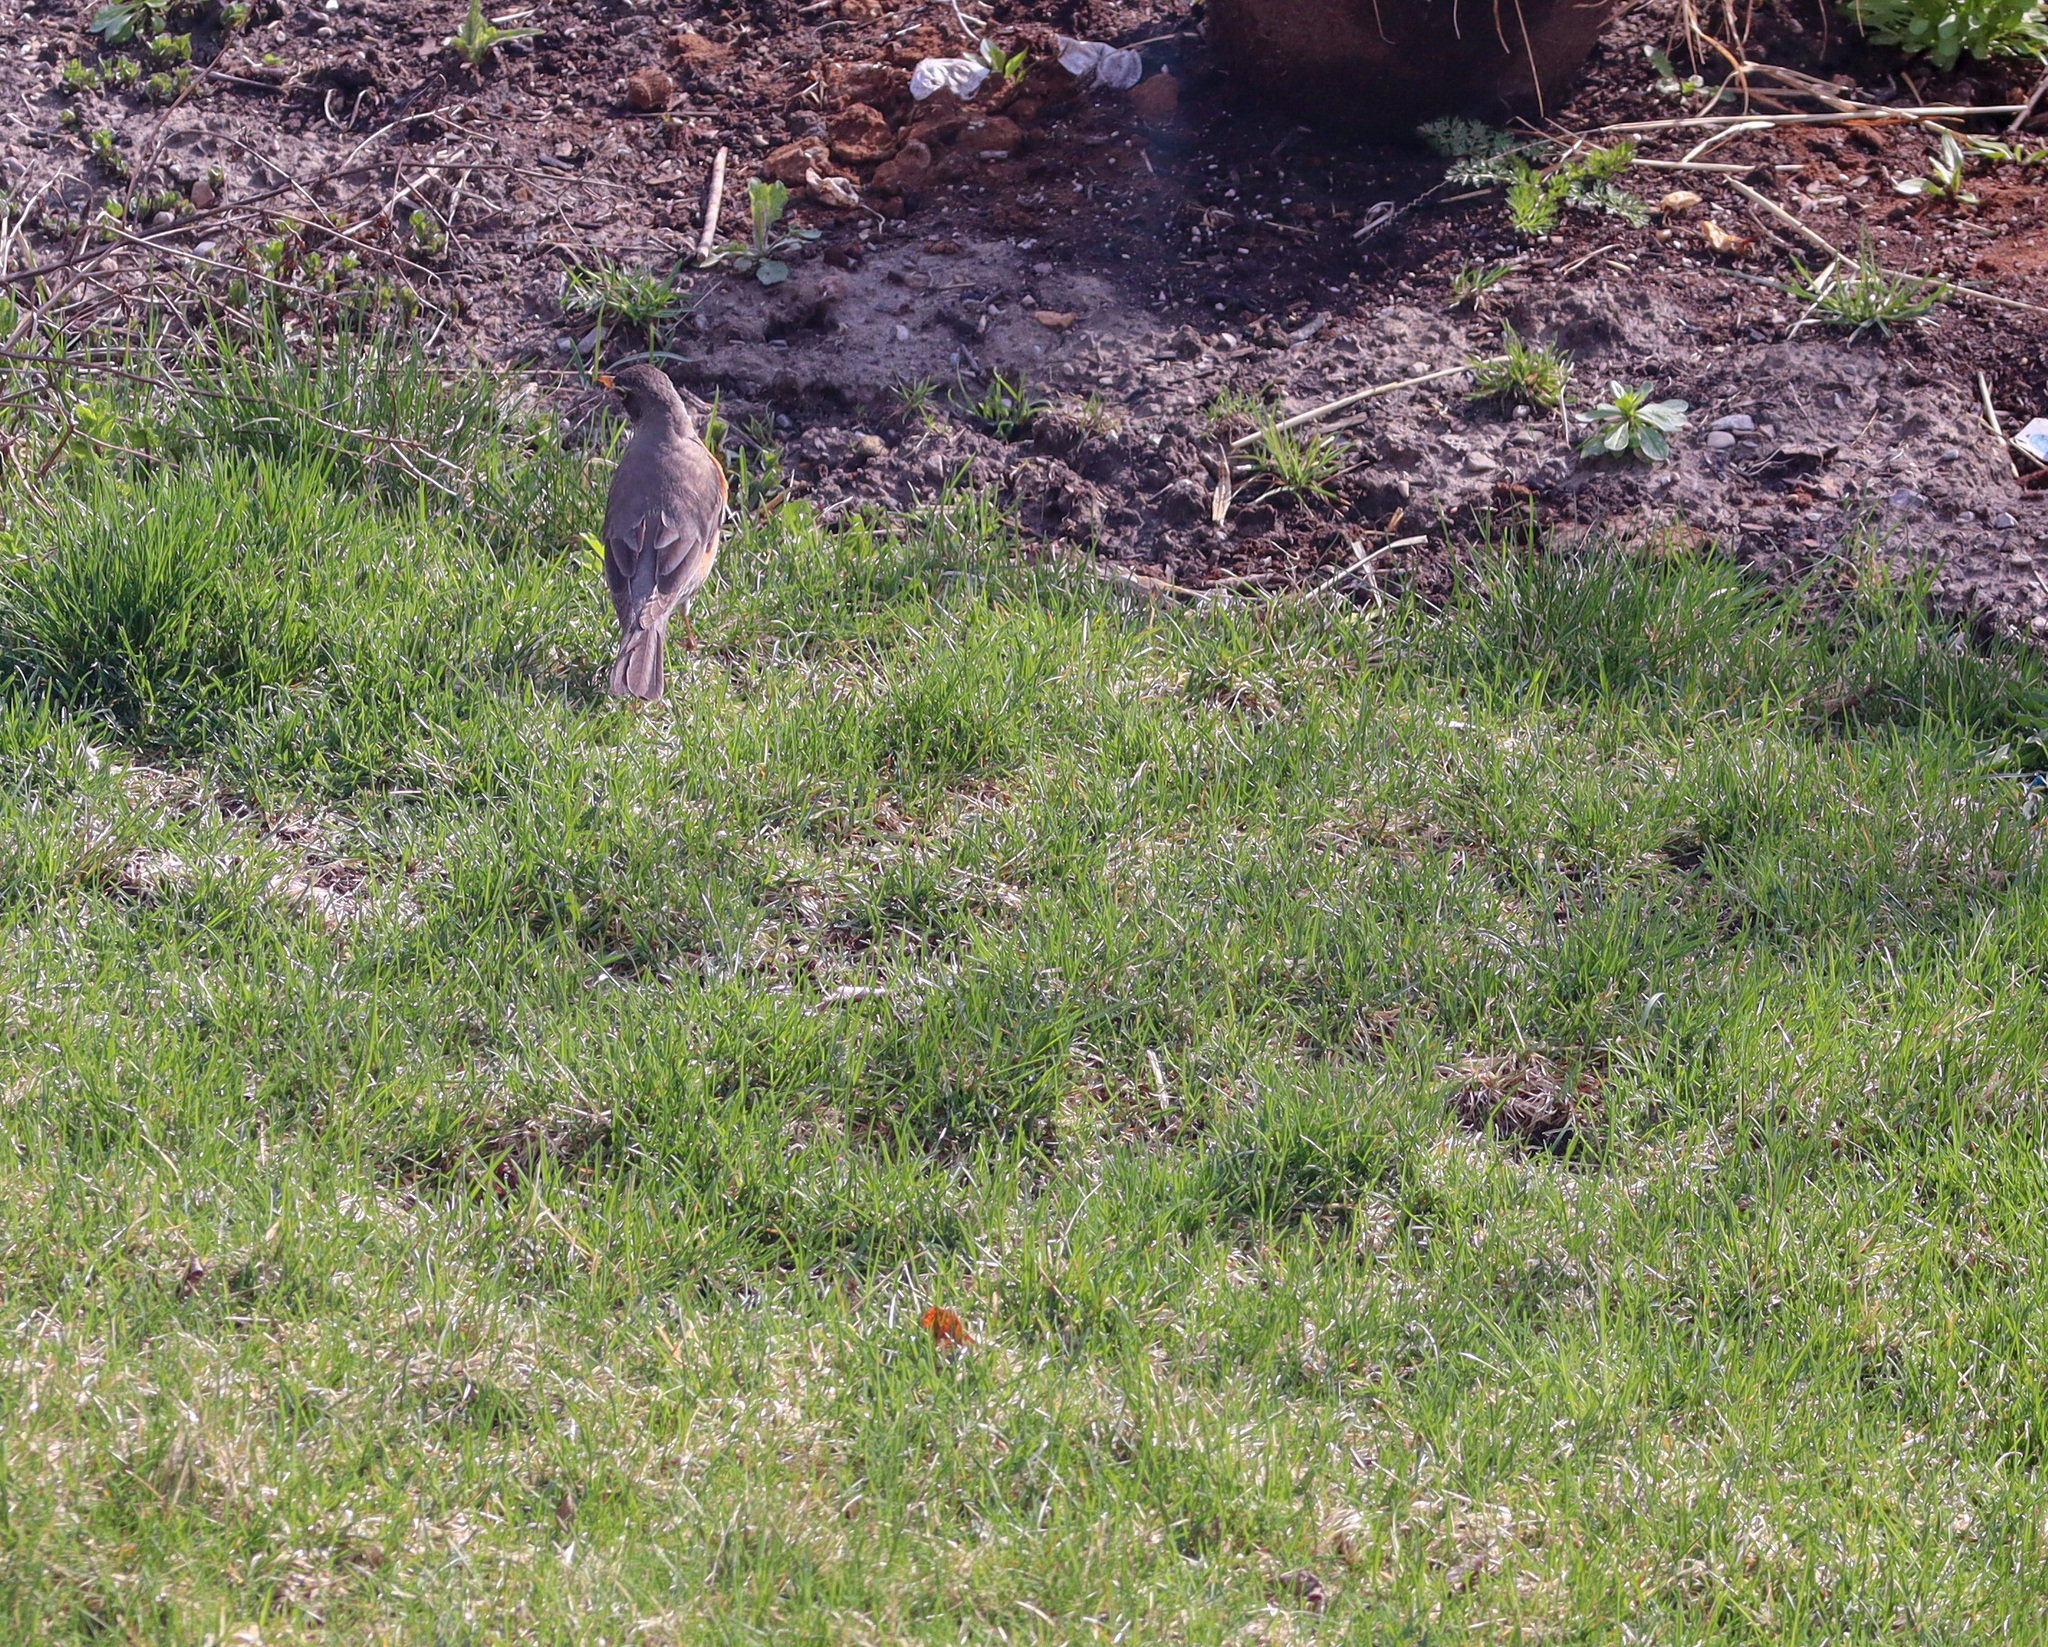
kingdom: Animalia
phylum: Chordata
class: Aves
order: Passeriformes
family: Turdidae
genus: Turdus
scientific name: Turdus migratorius
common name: American robin
